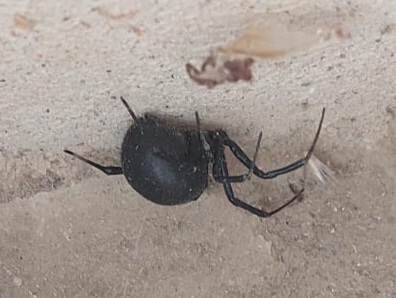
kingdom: Animalia
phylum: Arthropoda
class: Arachnida
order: Araneae
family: Theridiidae
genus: Latrodectus
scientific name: Latrodectus tredecimguttatus
